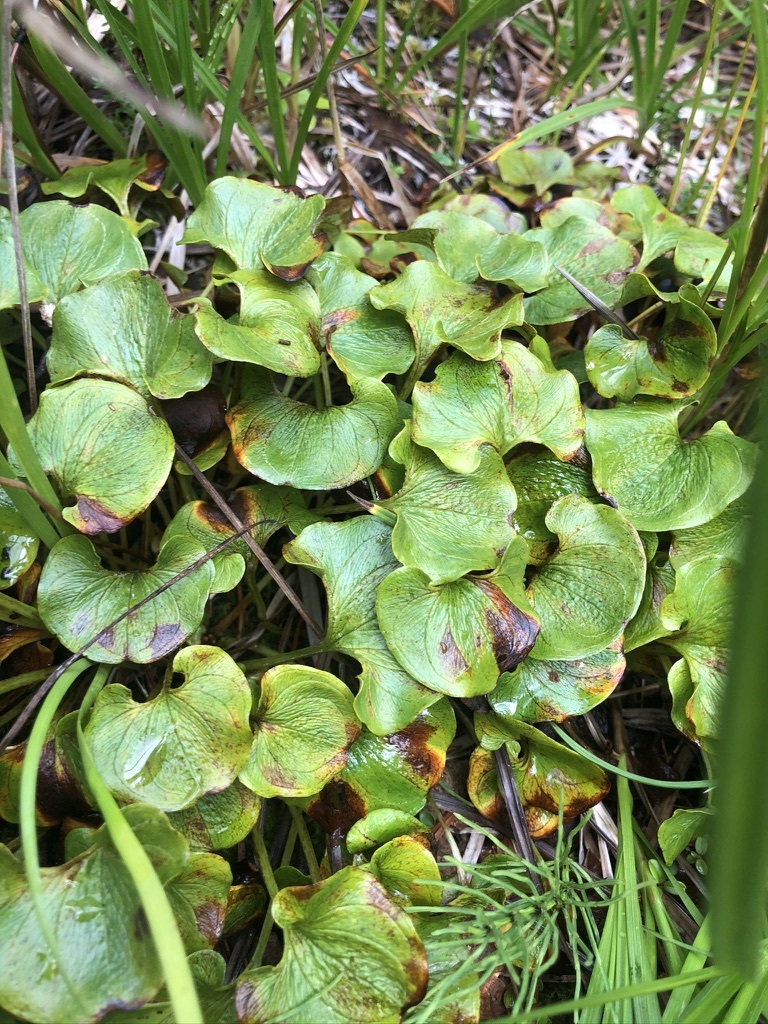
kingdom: Plantae
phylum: Tracheophyta
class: Magnoliopsida
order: Celastrales
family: Parnassiaceae
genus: Parnassia
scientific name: Parnassia fimbriata
